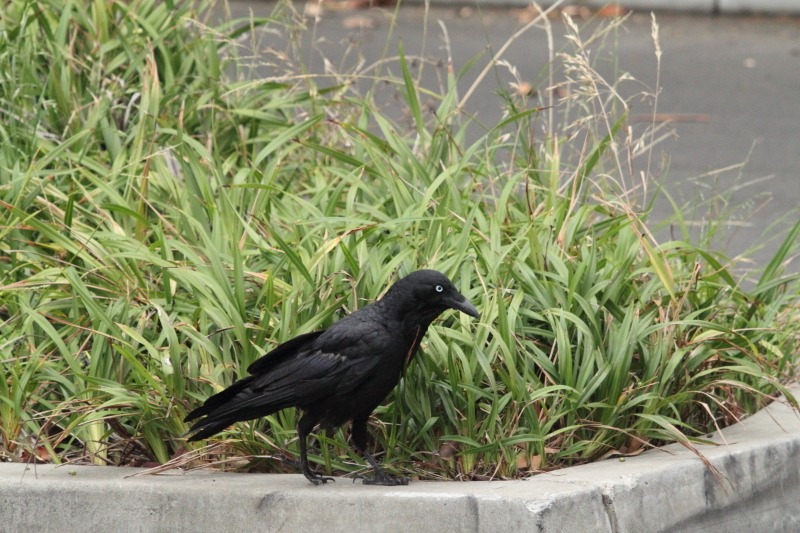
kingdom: Animalia
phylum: Chordata
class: Aves
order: Passeriformes
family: Corvidae
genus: Corvus
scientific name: Corvus coronoides
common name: Australian raven
